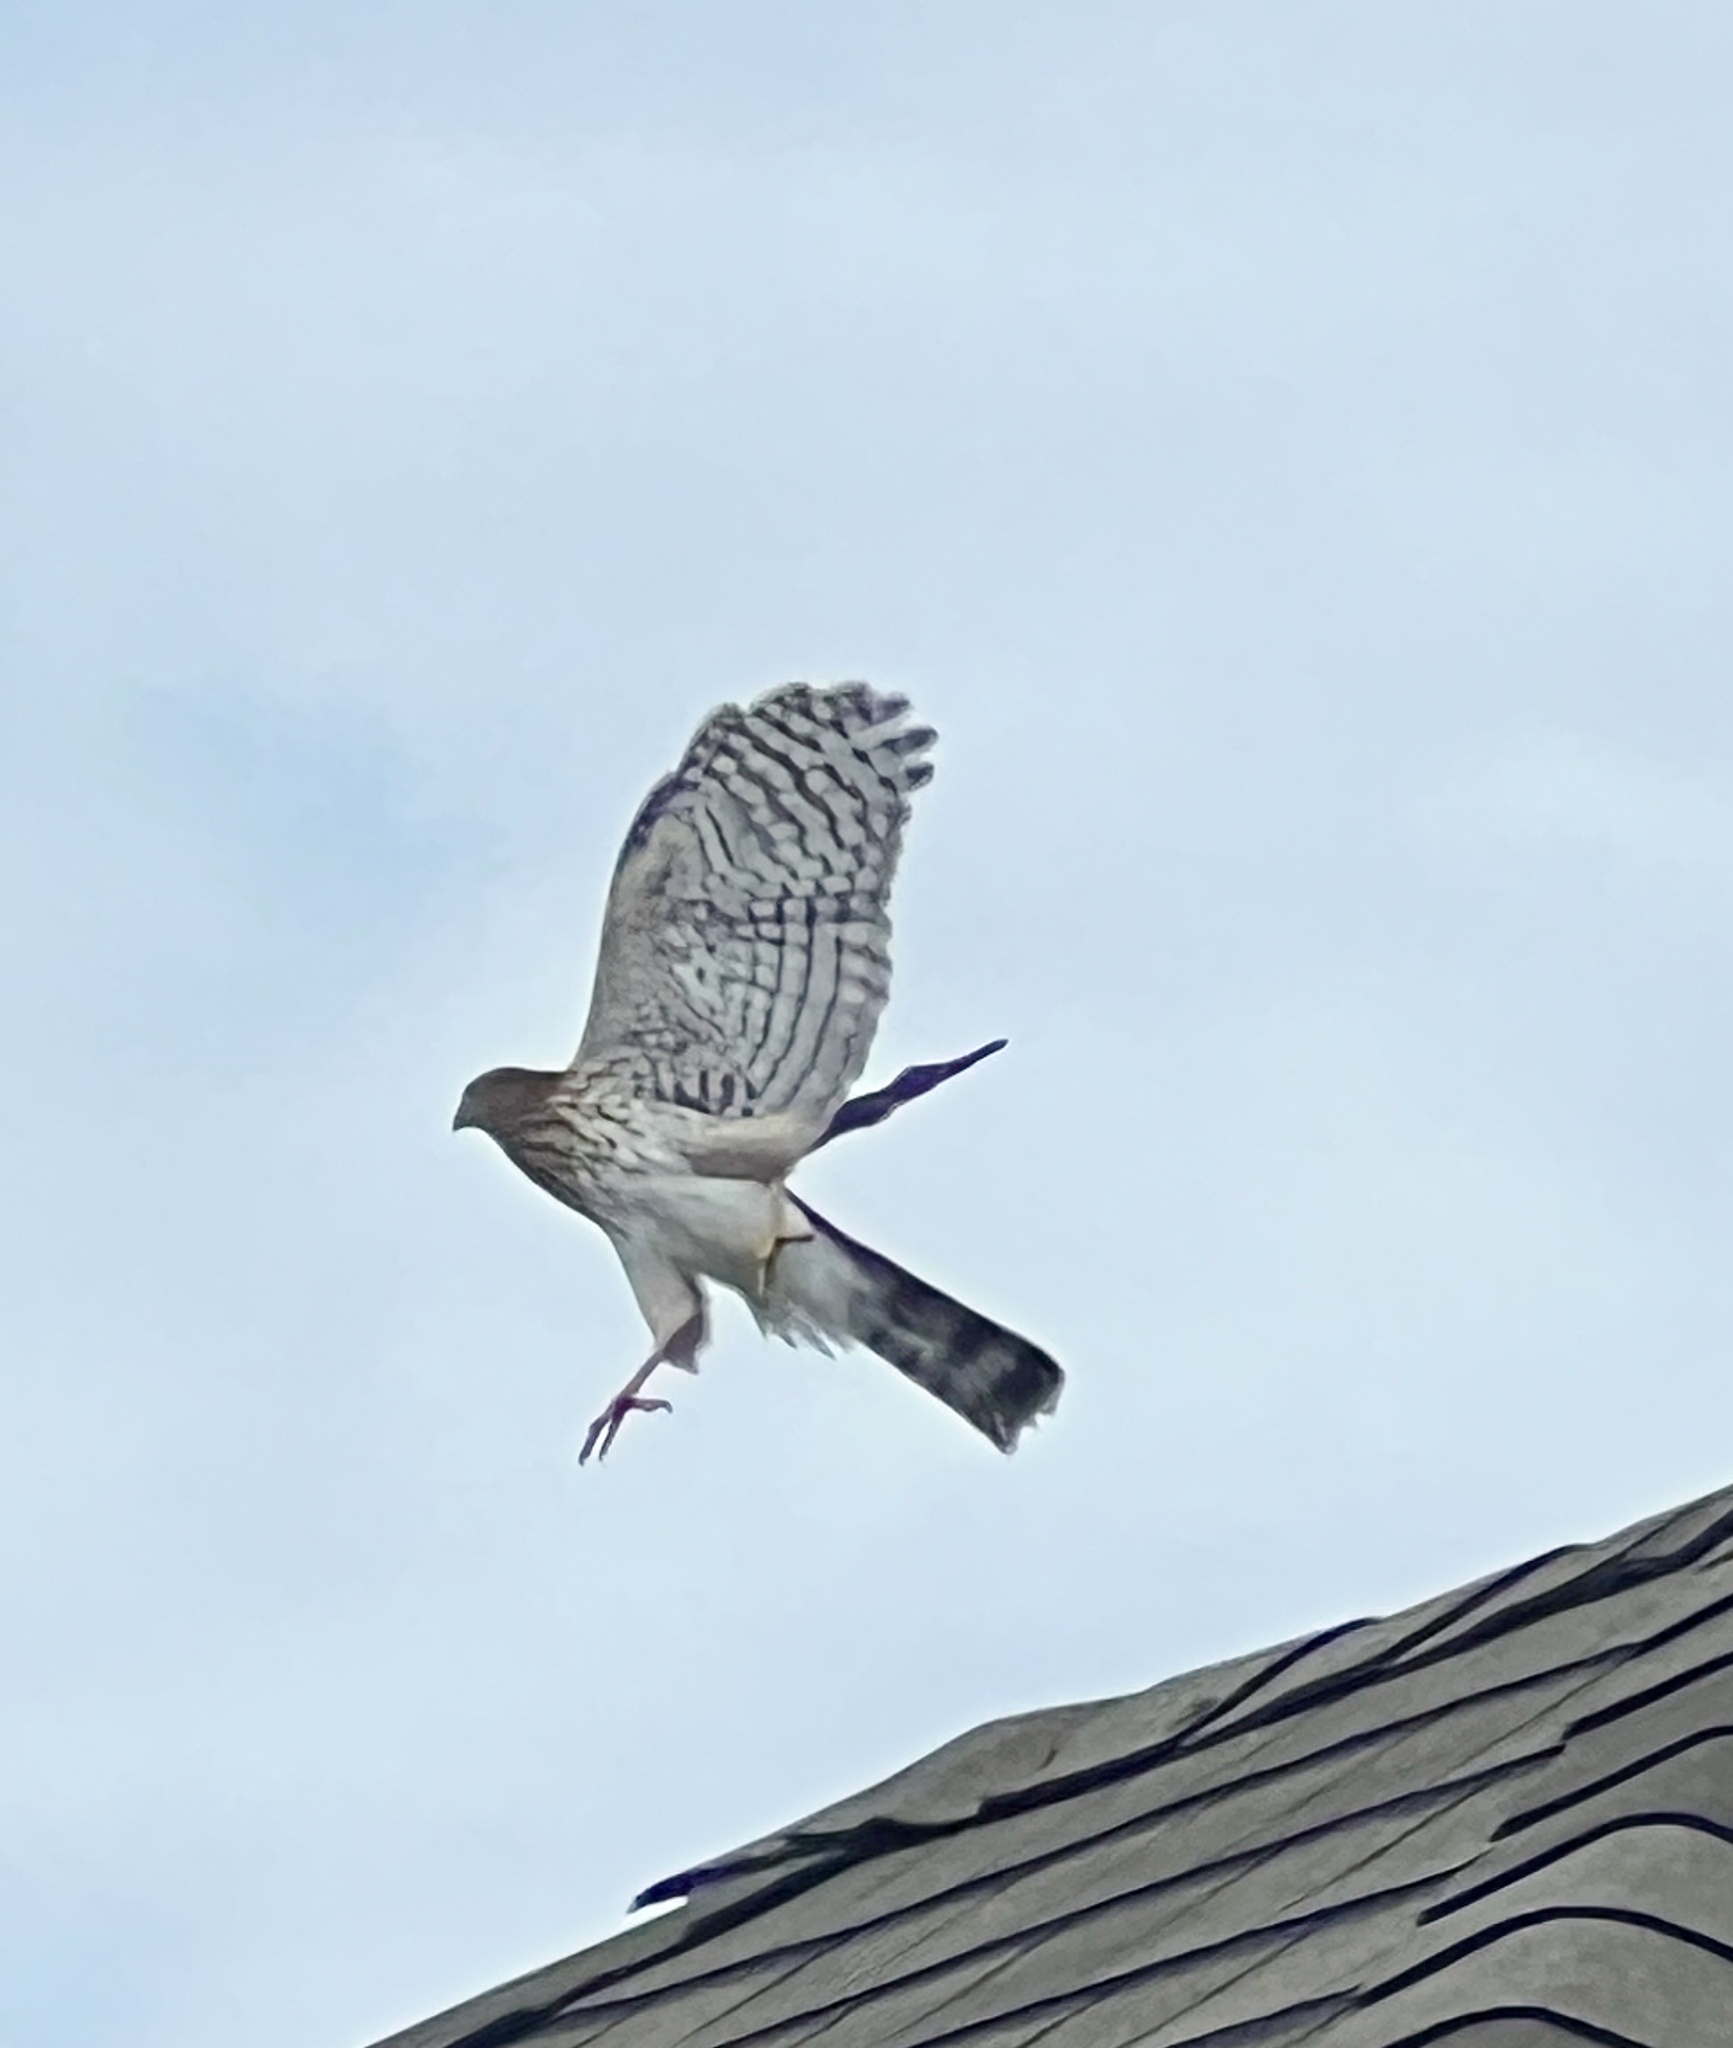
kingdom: Animalia
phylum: Chordata
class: Aves
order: Accipitriformes
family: Accipitridae
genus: Accipiter
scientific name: Accipiter cooperii
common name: Cooper's hawk
